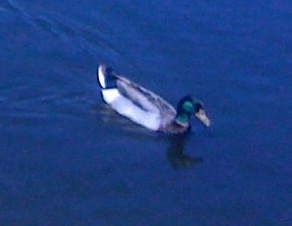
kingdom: Animalia
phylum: Chordata
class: Aves
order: Anseriformes
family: Anatidae
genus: Anas
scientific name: Anas platyrhynchos
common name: Mallard
